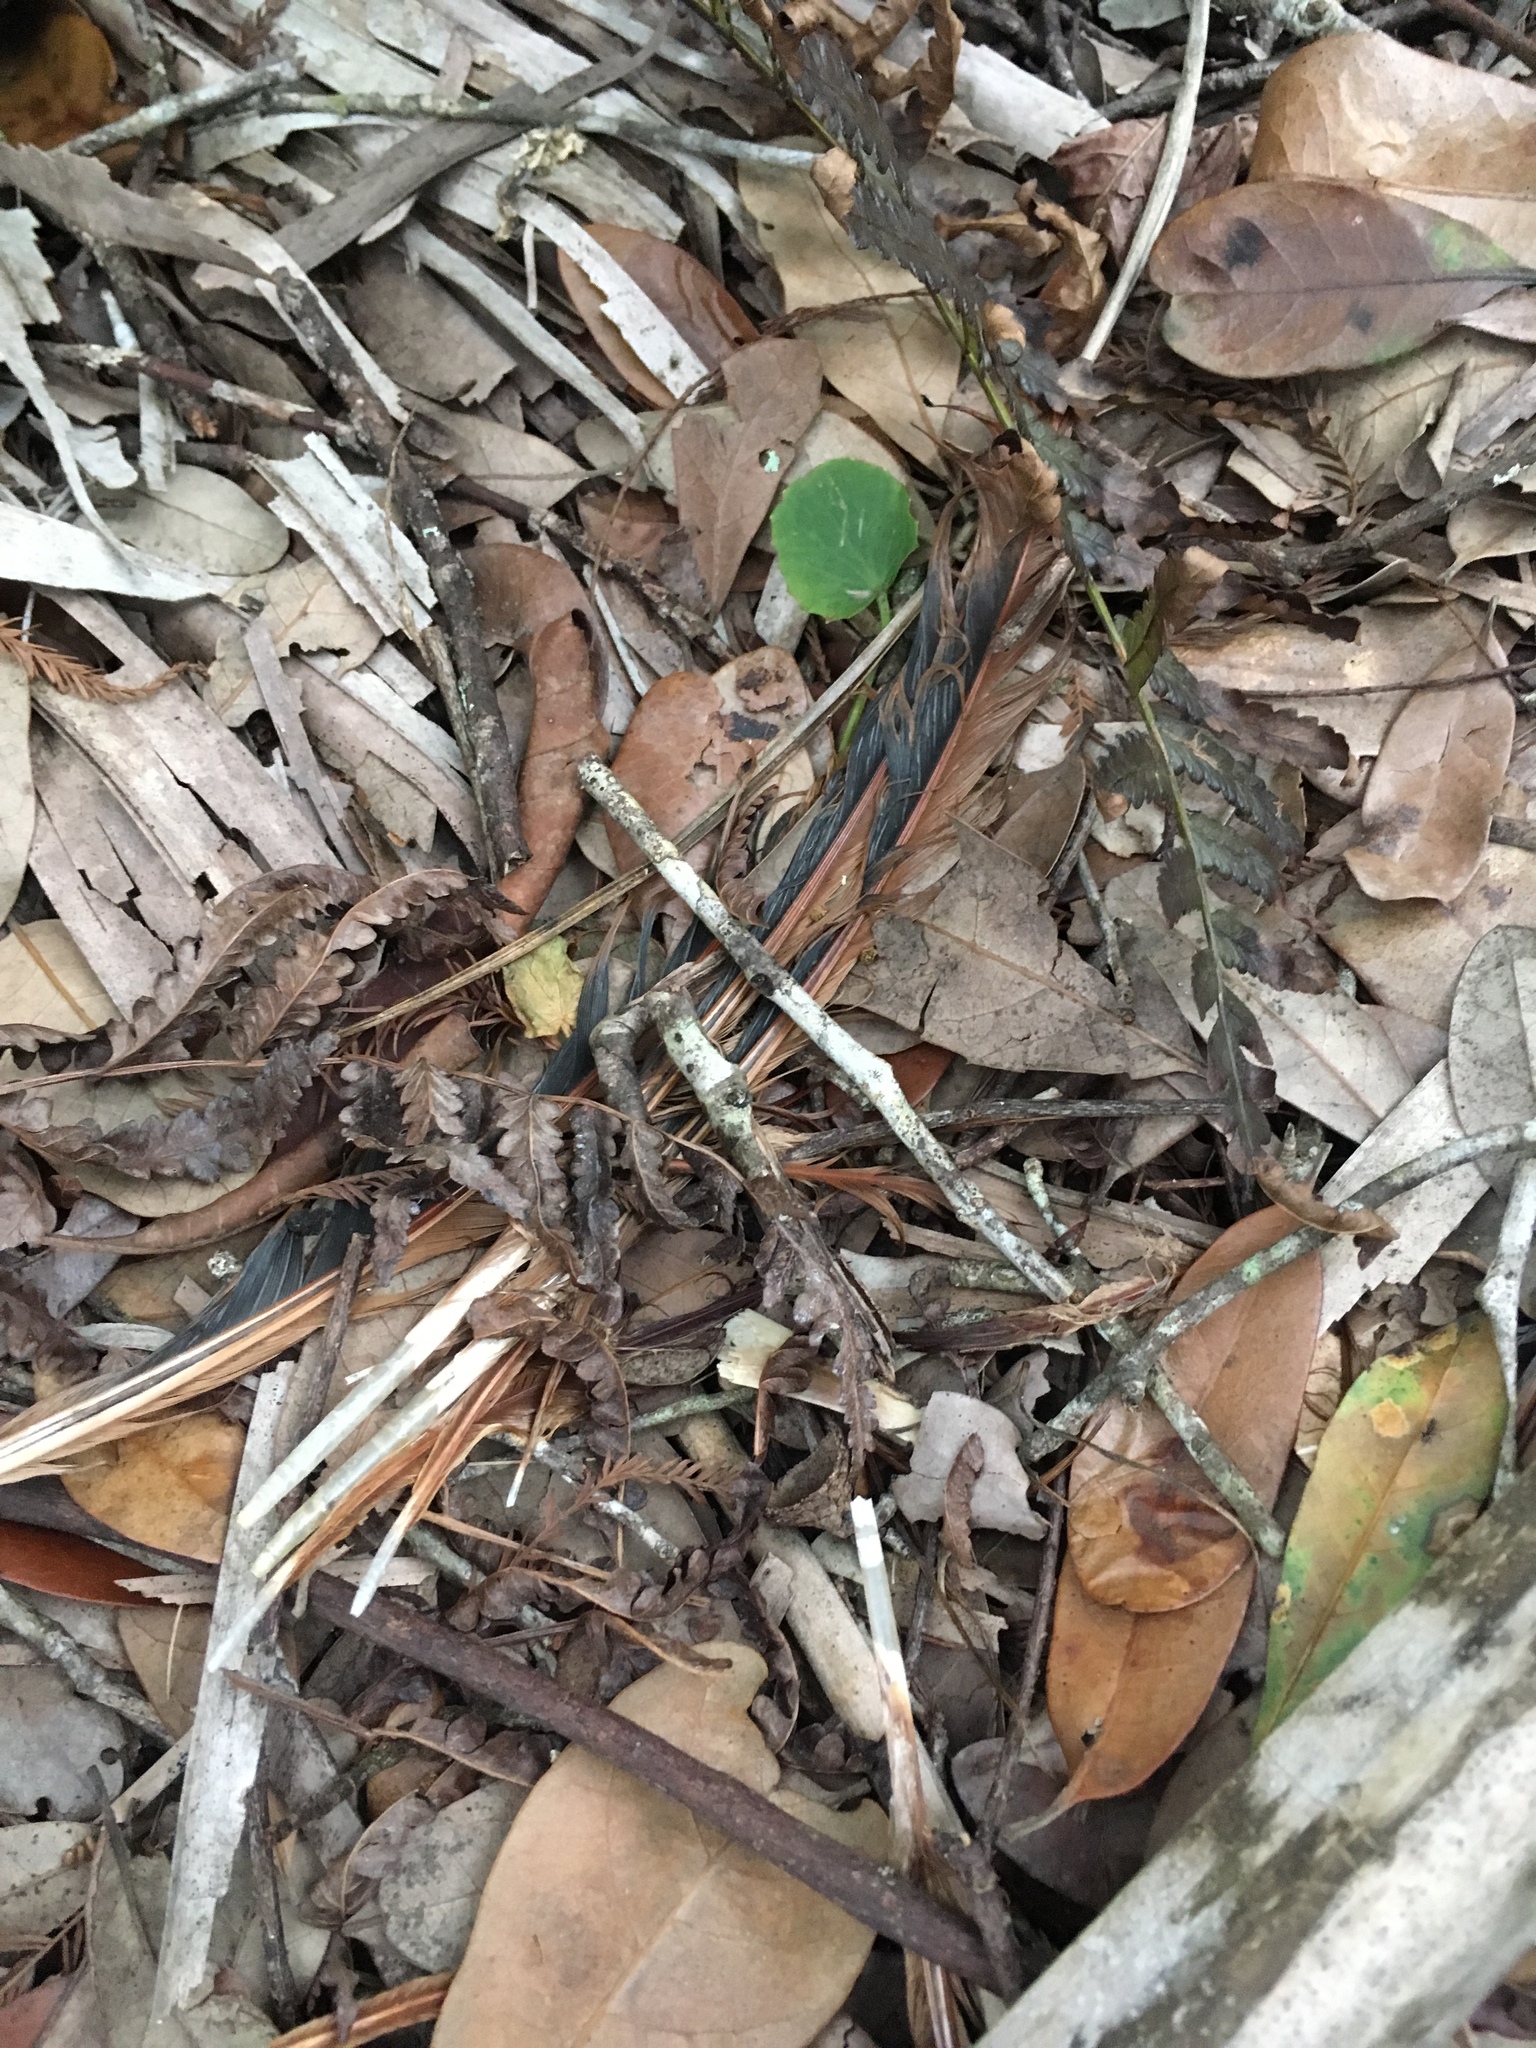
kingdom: Animalia
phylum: Chordata
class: Aves
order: Galliformes
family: Phasianidae
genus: Gallus
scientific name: Gallus gallus
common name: Red junglefowl
